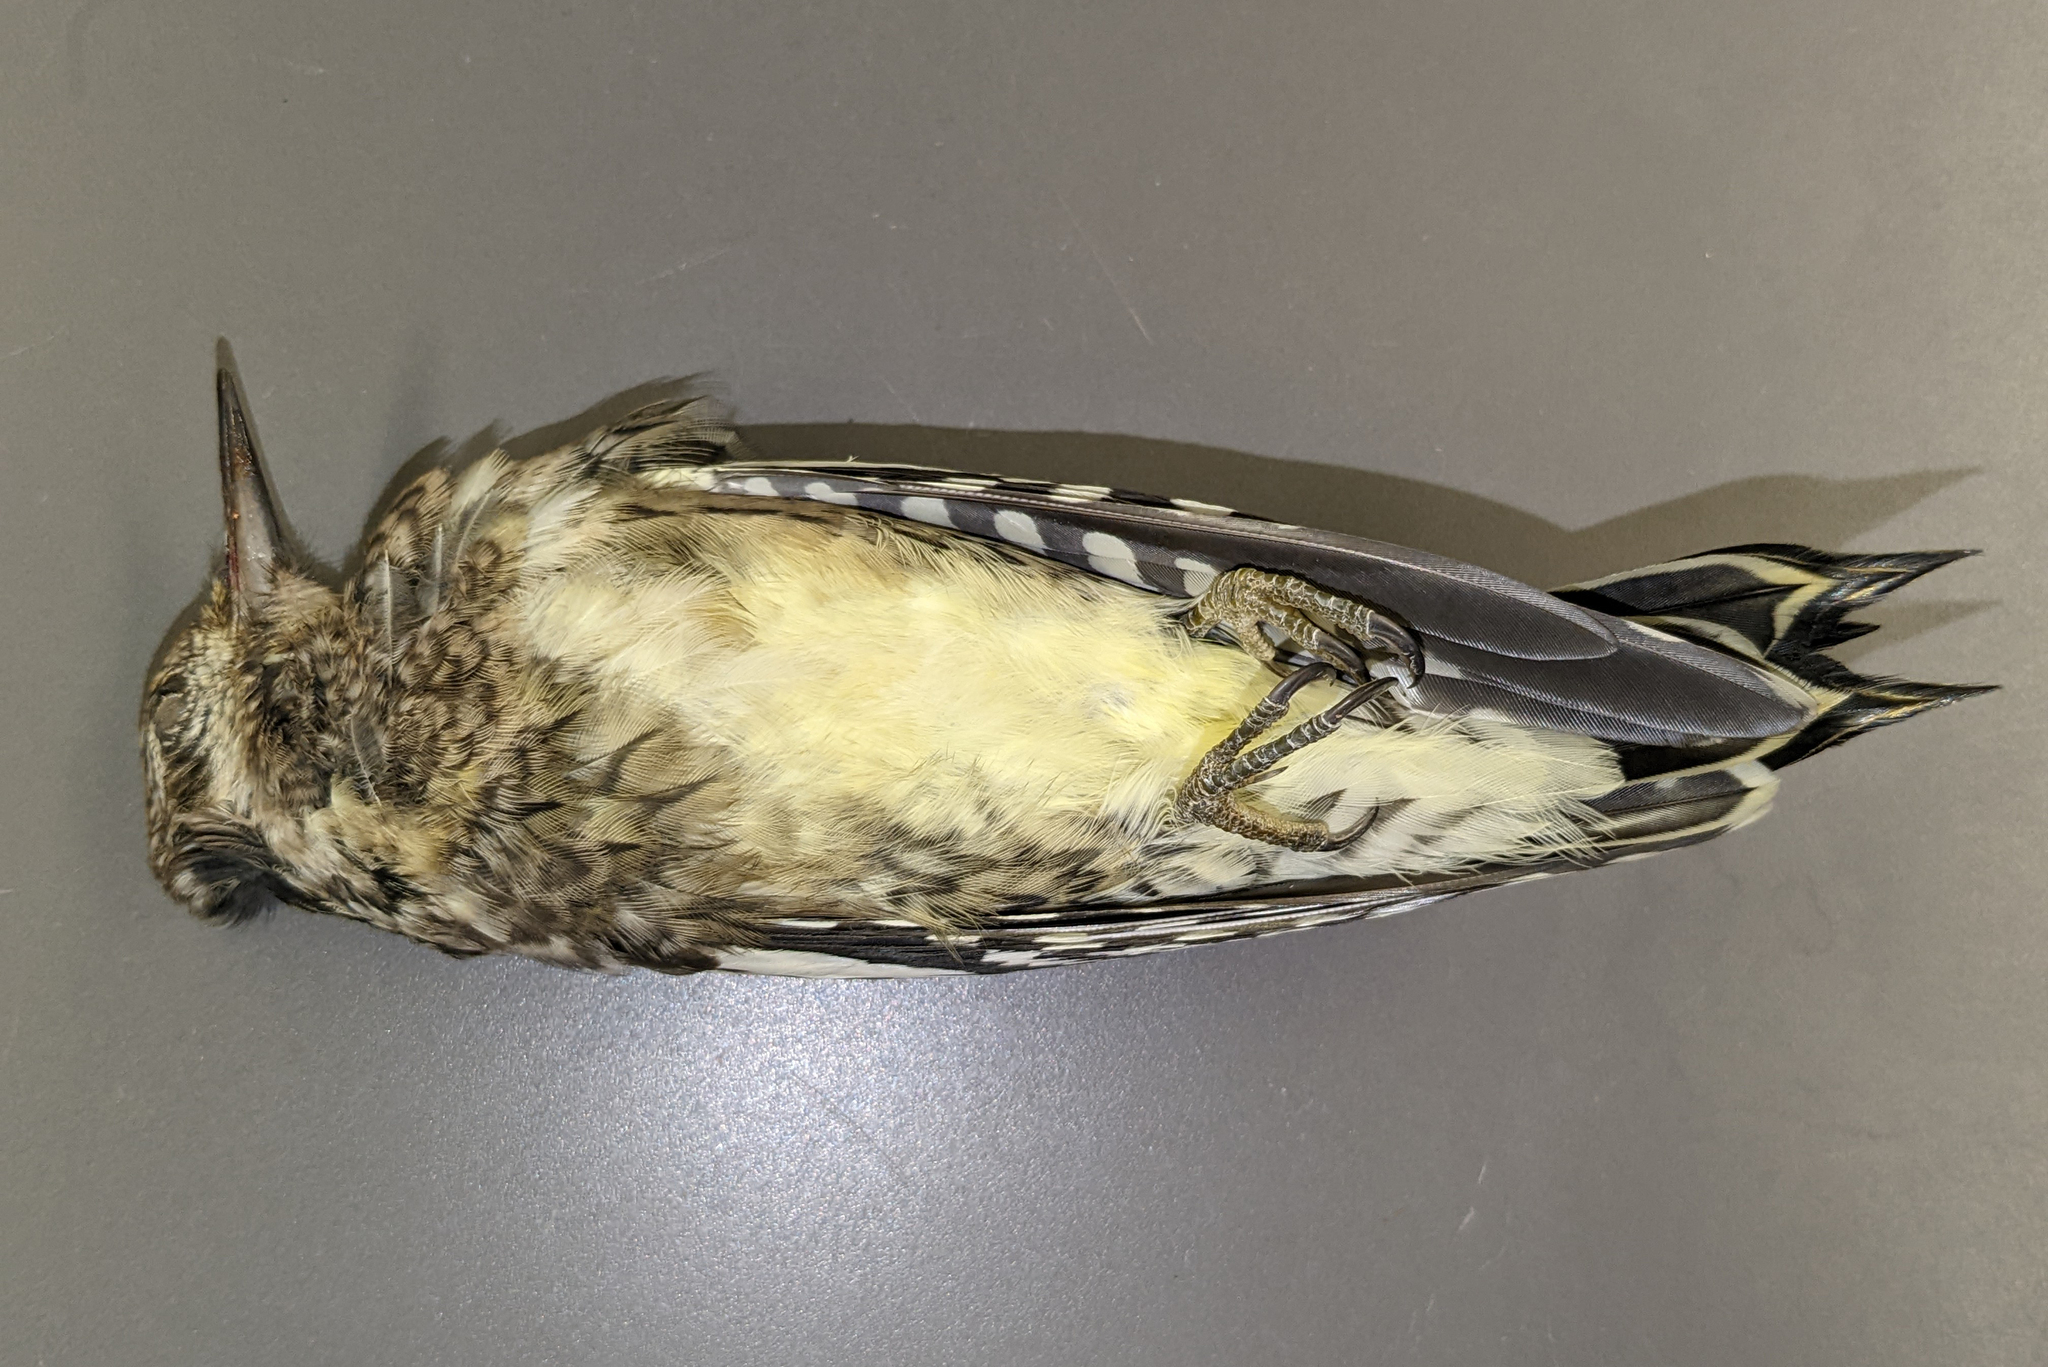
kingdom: Animalia
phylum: Chordata
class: Aves
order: Piciformes
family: Picidae
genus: Sphyrapicus
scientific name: Sphyrapicus varius
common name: Yellow-bellied sapsucker
